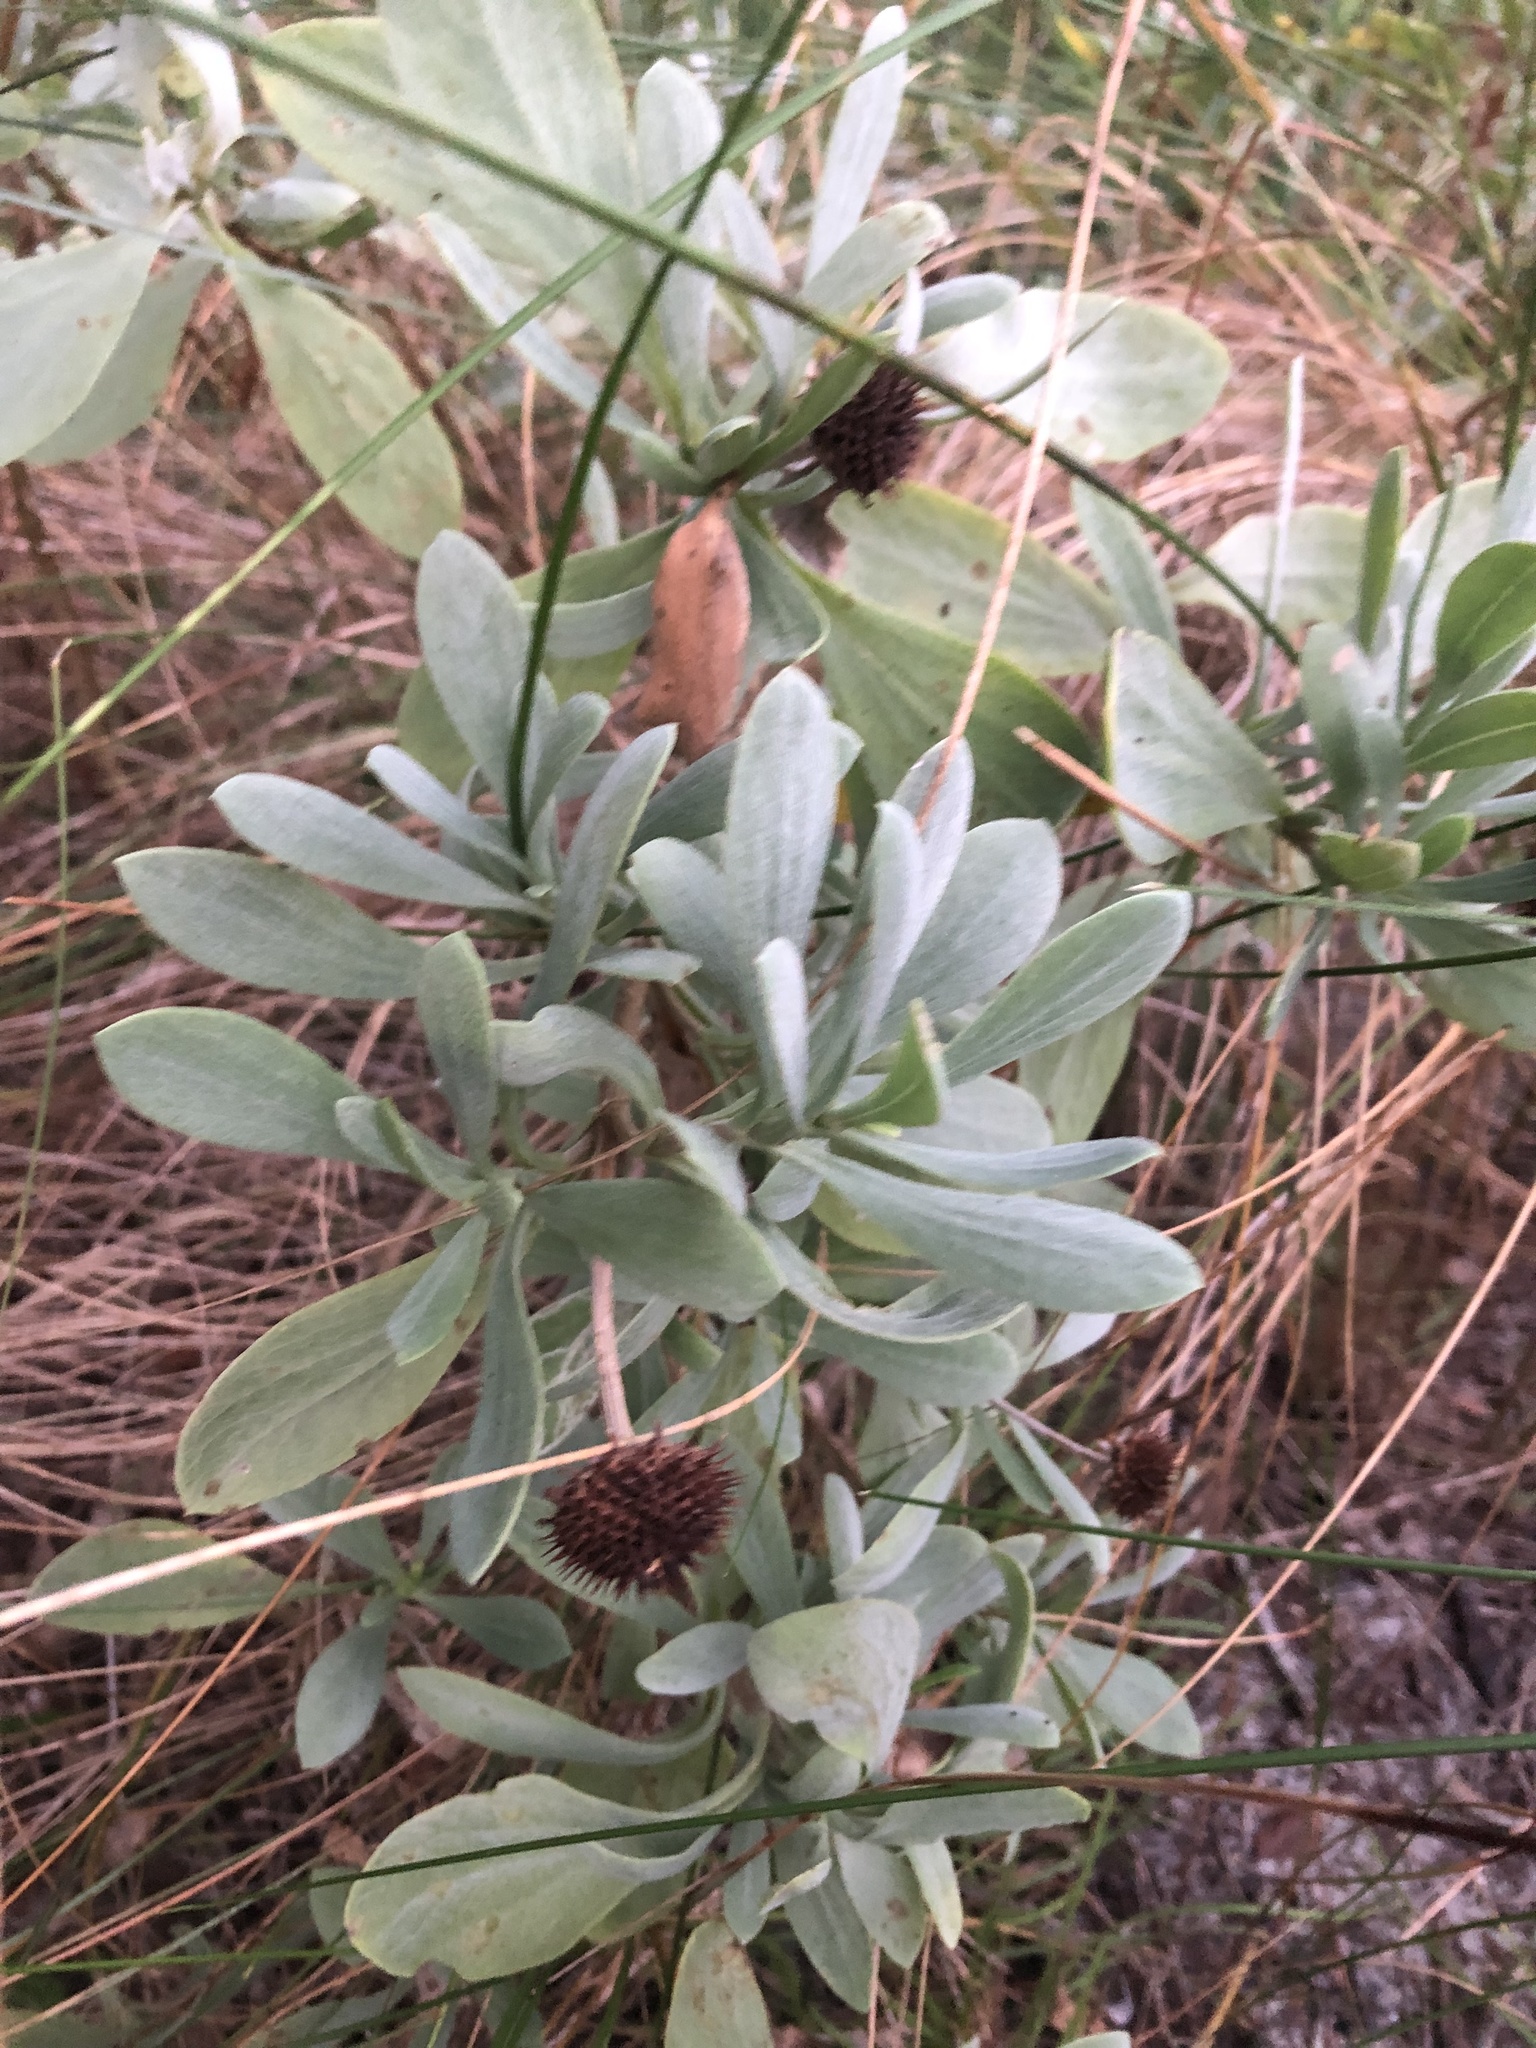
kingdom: Plantae
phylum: Tracheophyta
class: Magnoliopsida
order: Asterales
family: Asteraceae
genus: Borrichia
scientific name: Borrichia frutescens
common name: Sea oxeye
